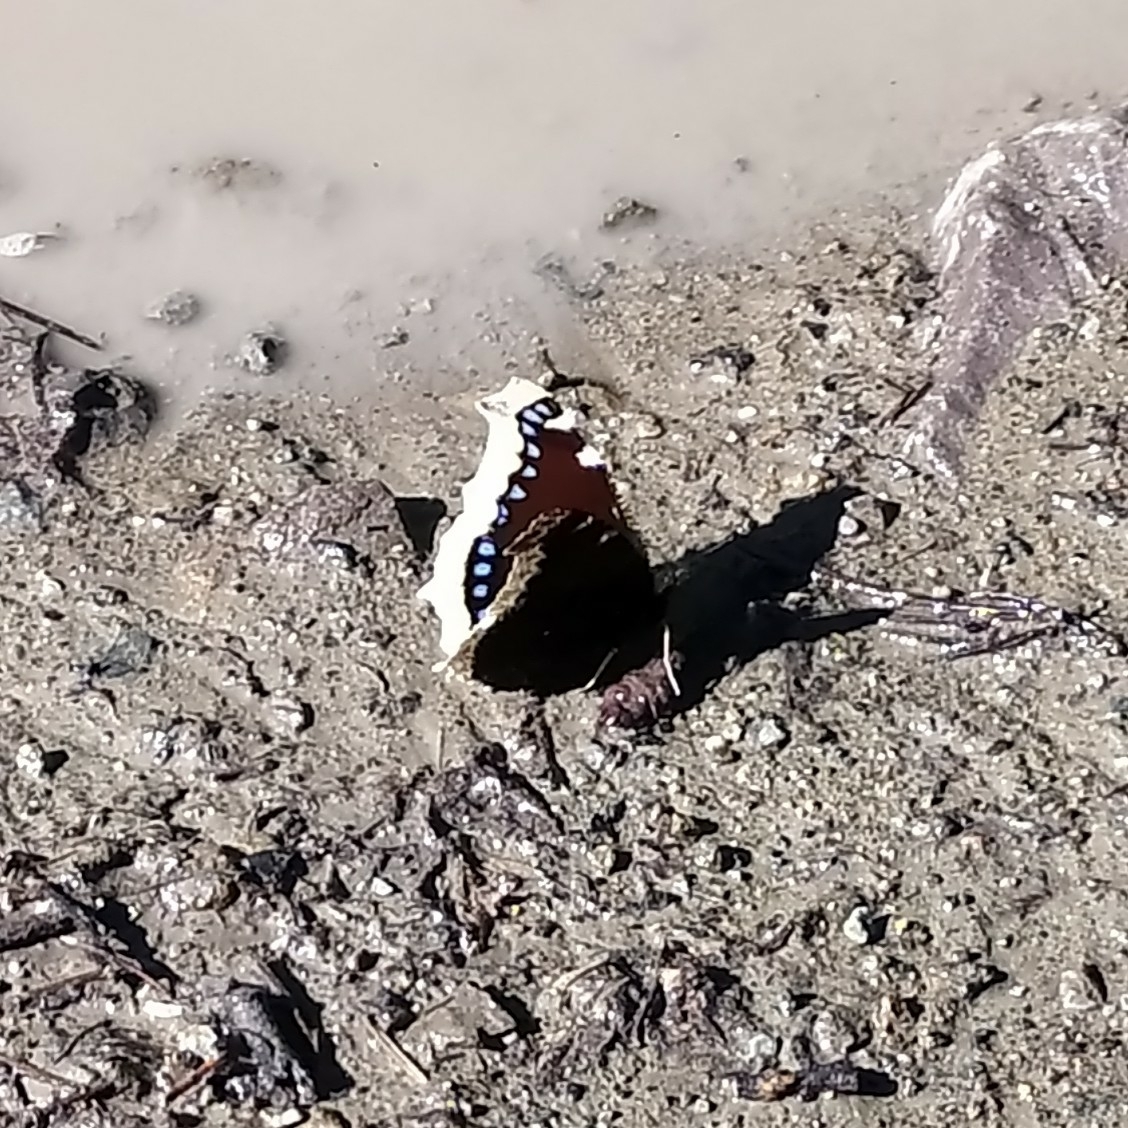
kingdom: Animalia
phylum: Arthropoda
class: Insecta
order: Lepidoptera
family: Nymphalidae
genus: Nymphalis
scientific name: Nymphalis antiopa
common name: Camberwell beauty
